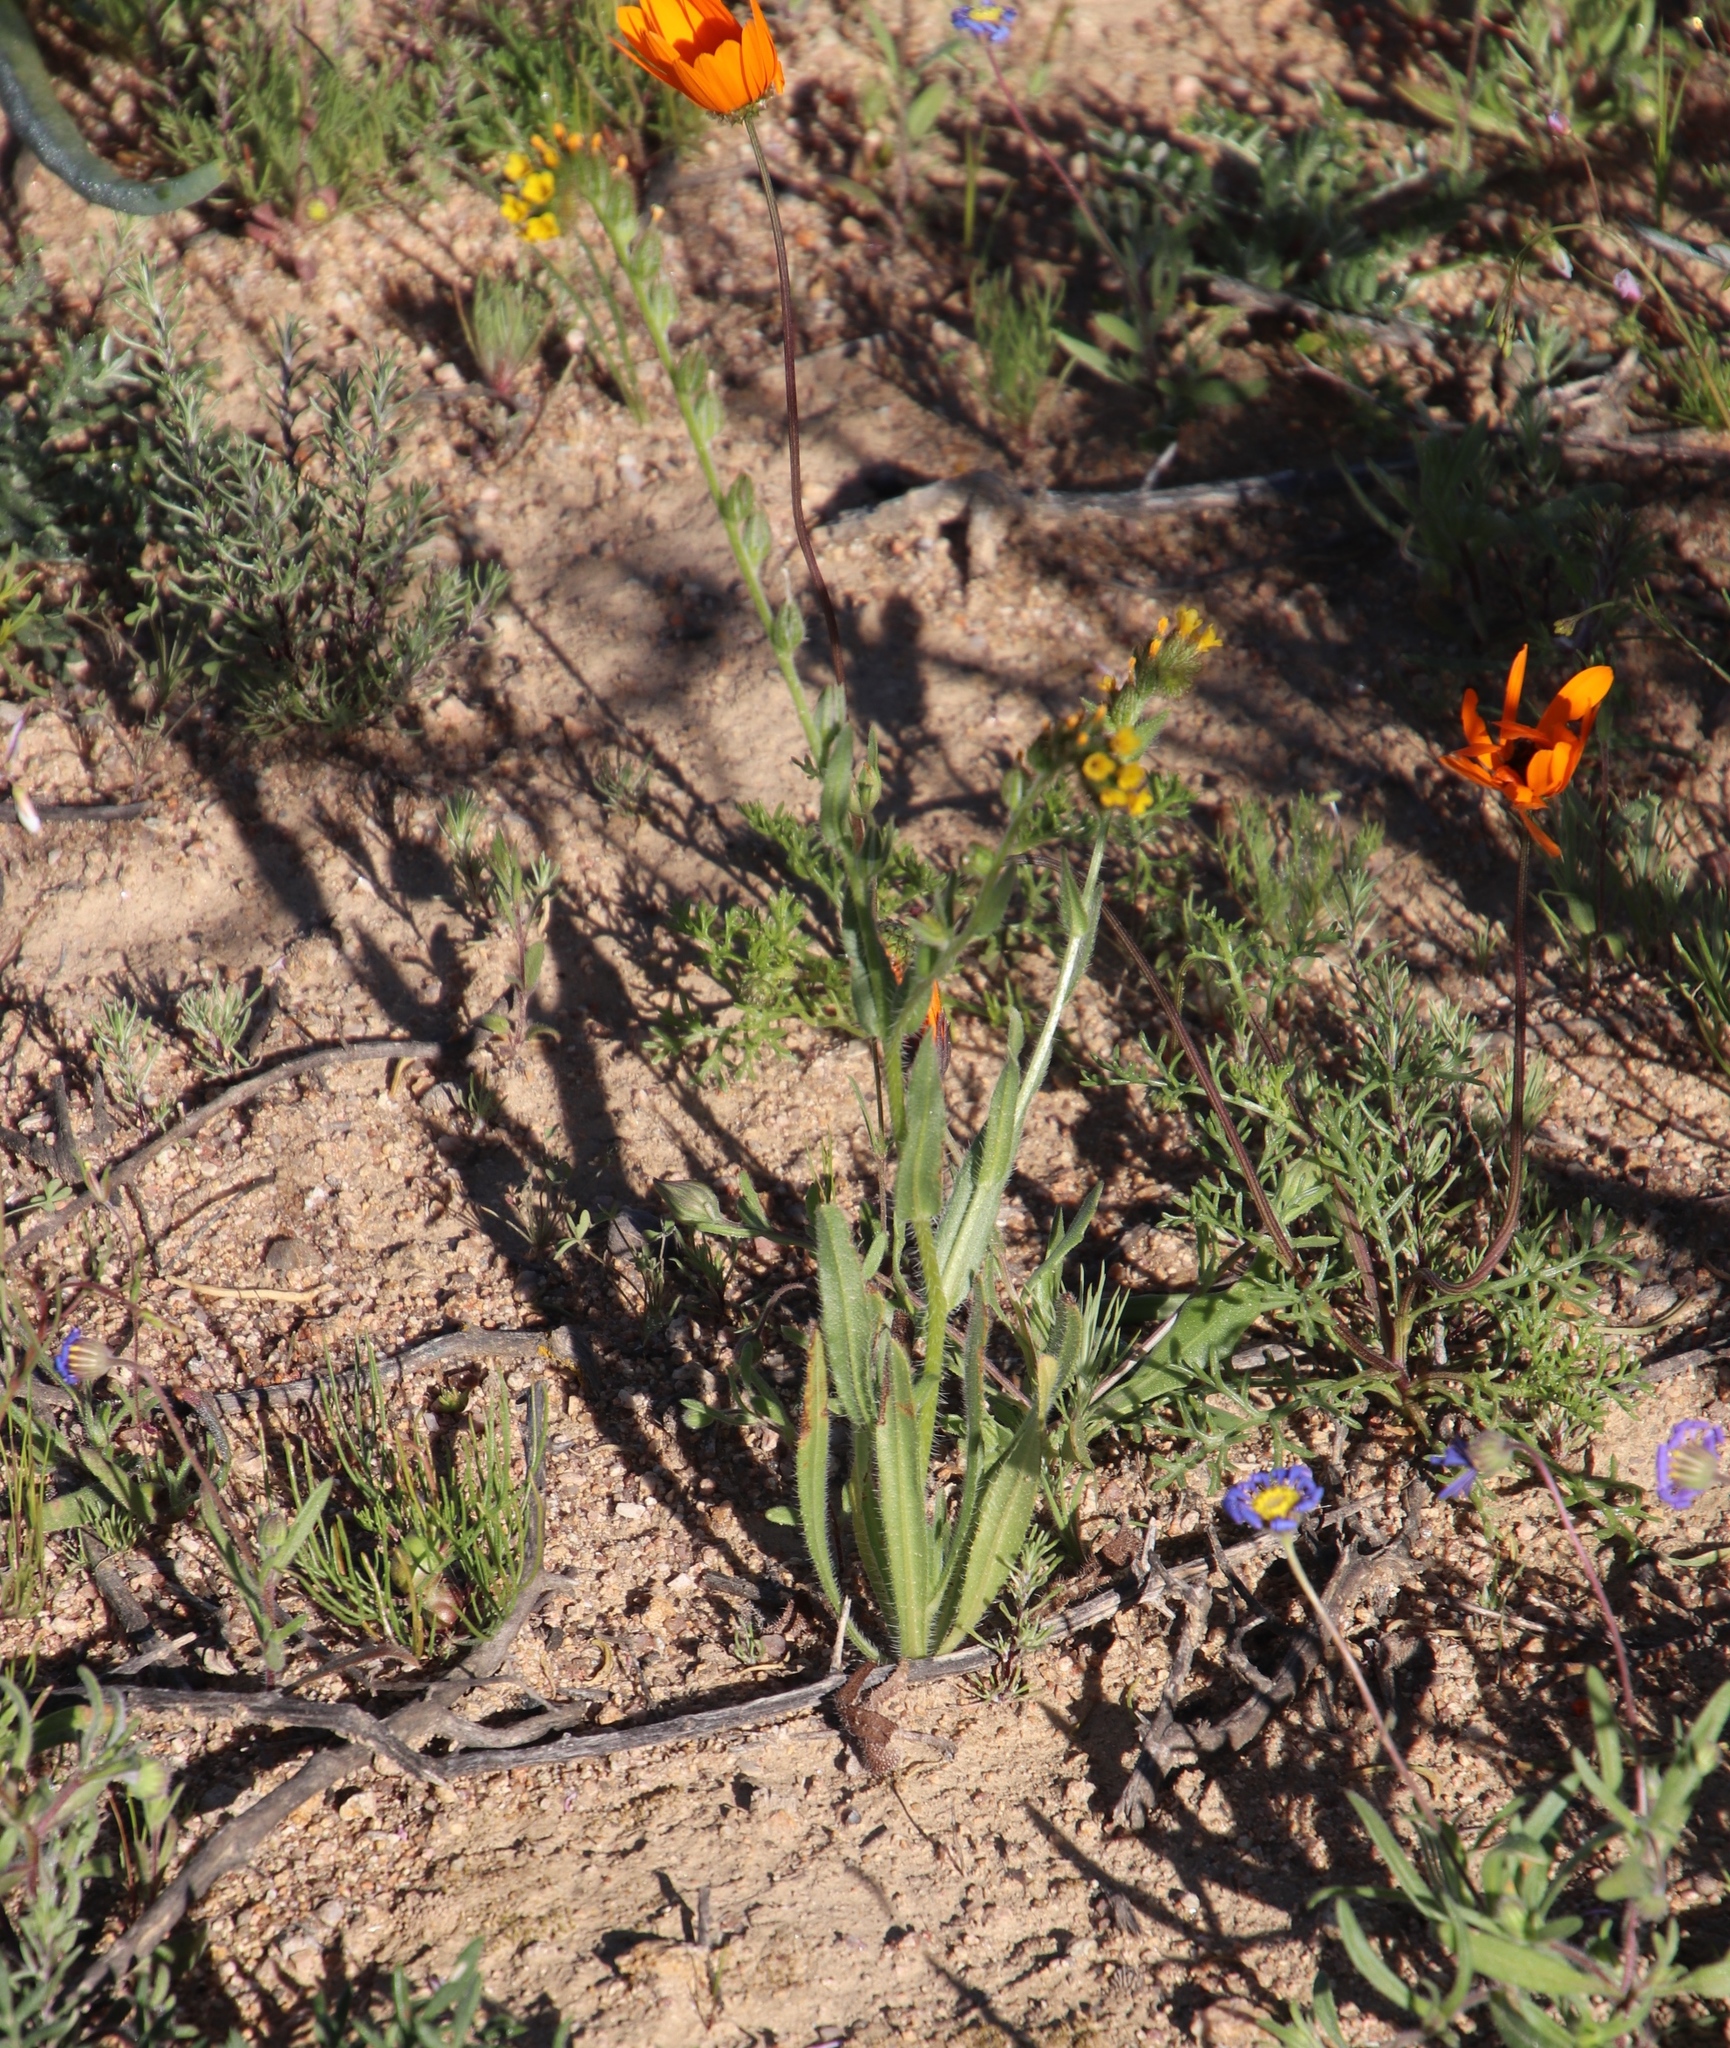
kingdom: Plantae
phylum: Tracheophyta
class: Magnoliopsida
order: Boraginales
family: Boraginaceae
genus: Amsinckia
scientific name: Amsinckia menziesii
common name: Menzies' fiddleneck
